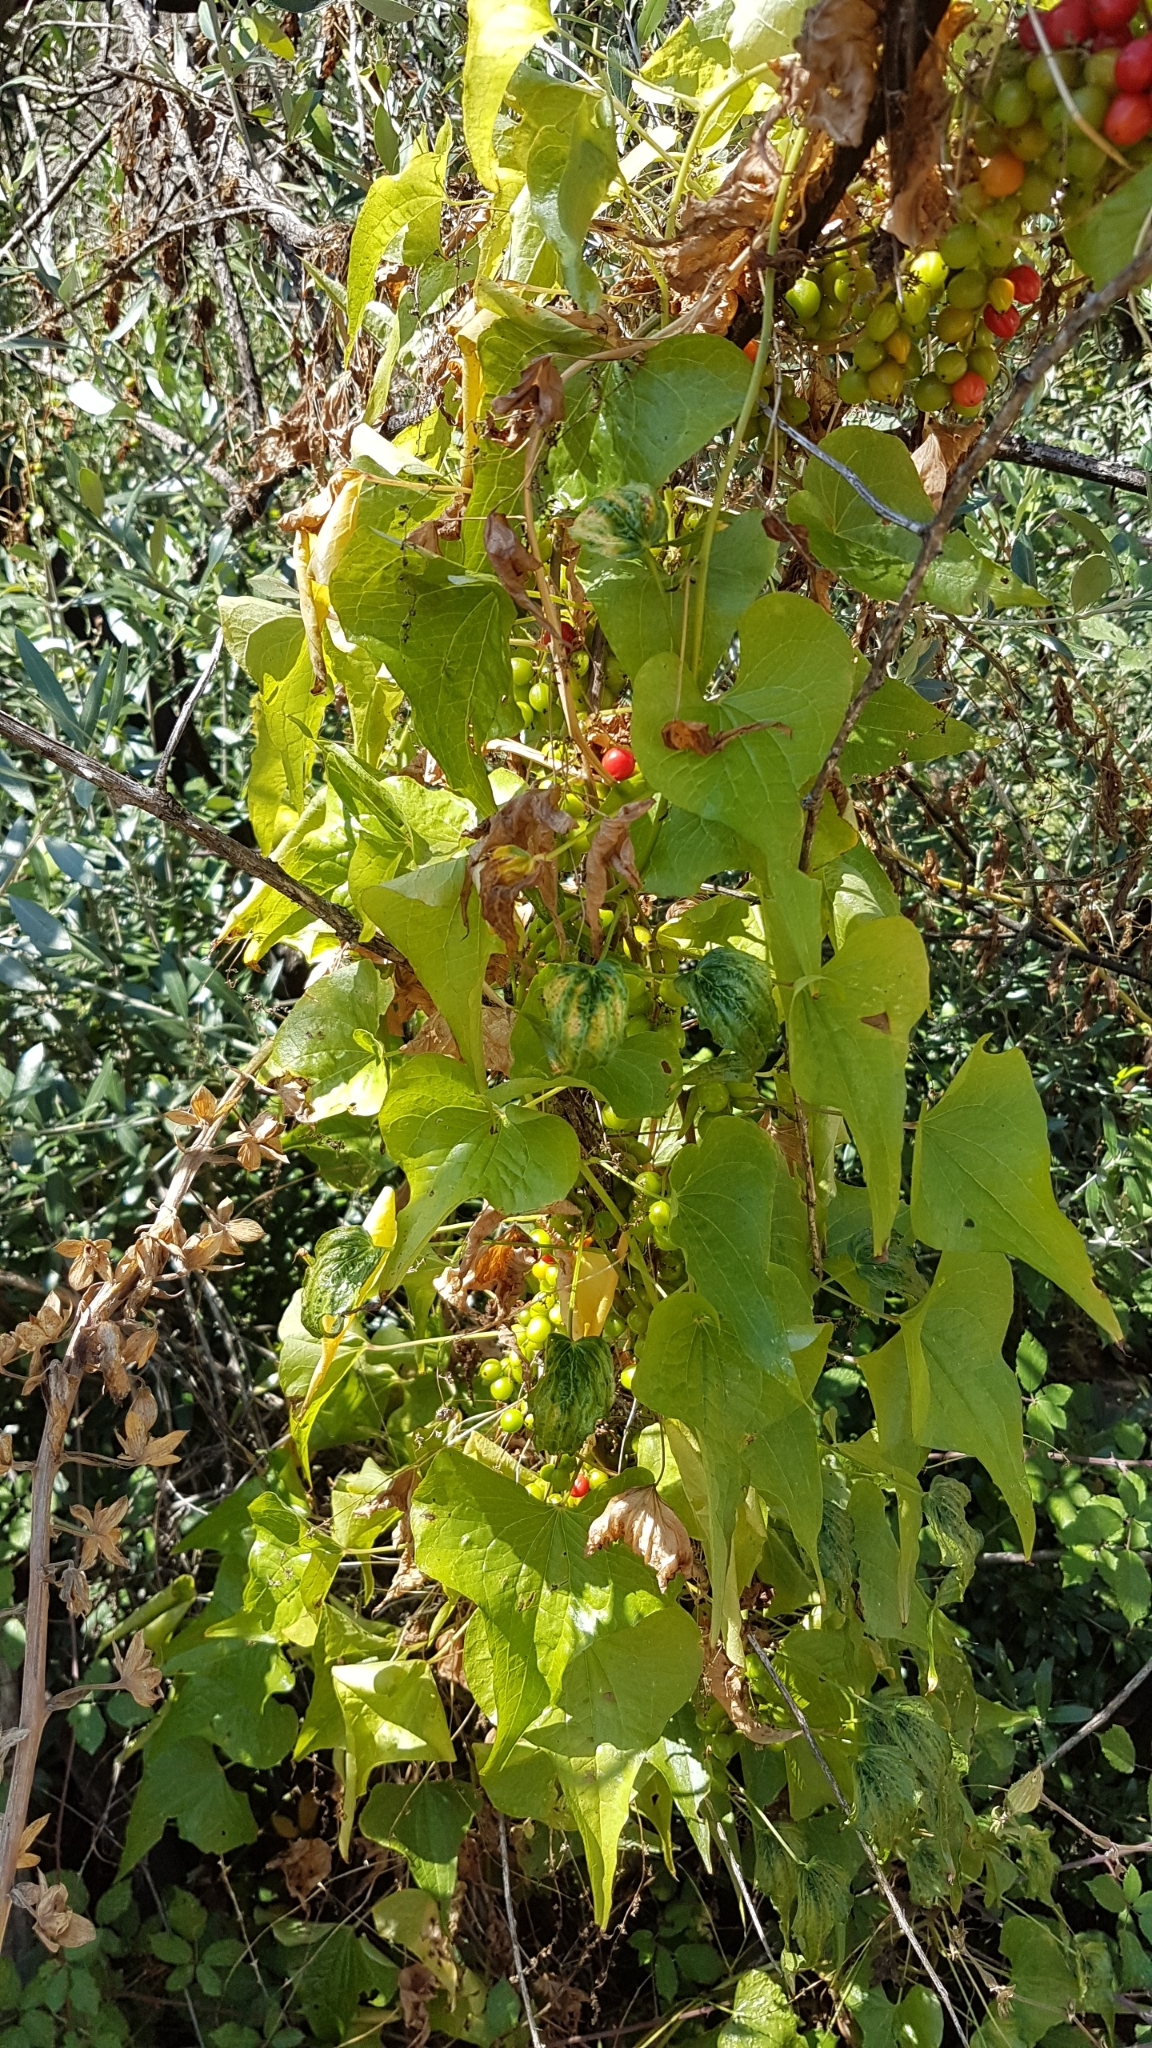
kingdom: Plantae
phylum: Tracheophyta
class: Liliopsida
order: Dioscoreales
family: Dioscoreaceae
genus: Dioscorea
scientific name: Dioscorea communis
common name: Black-bindweed
